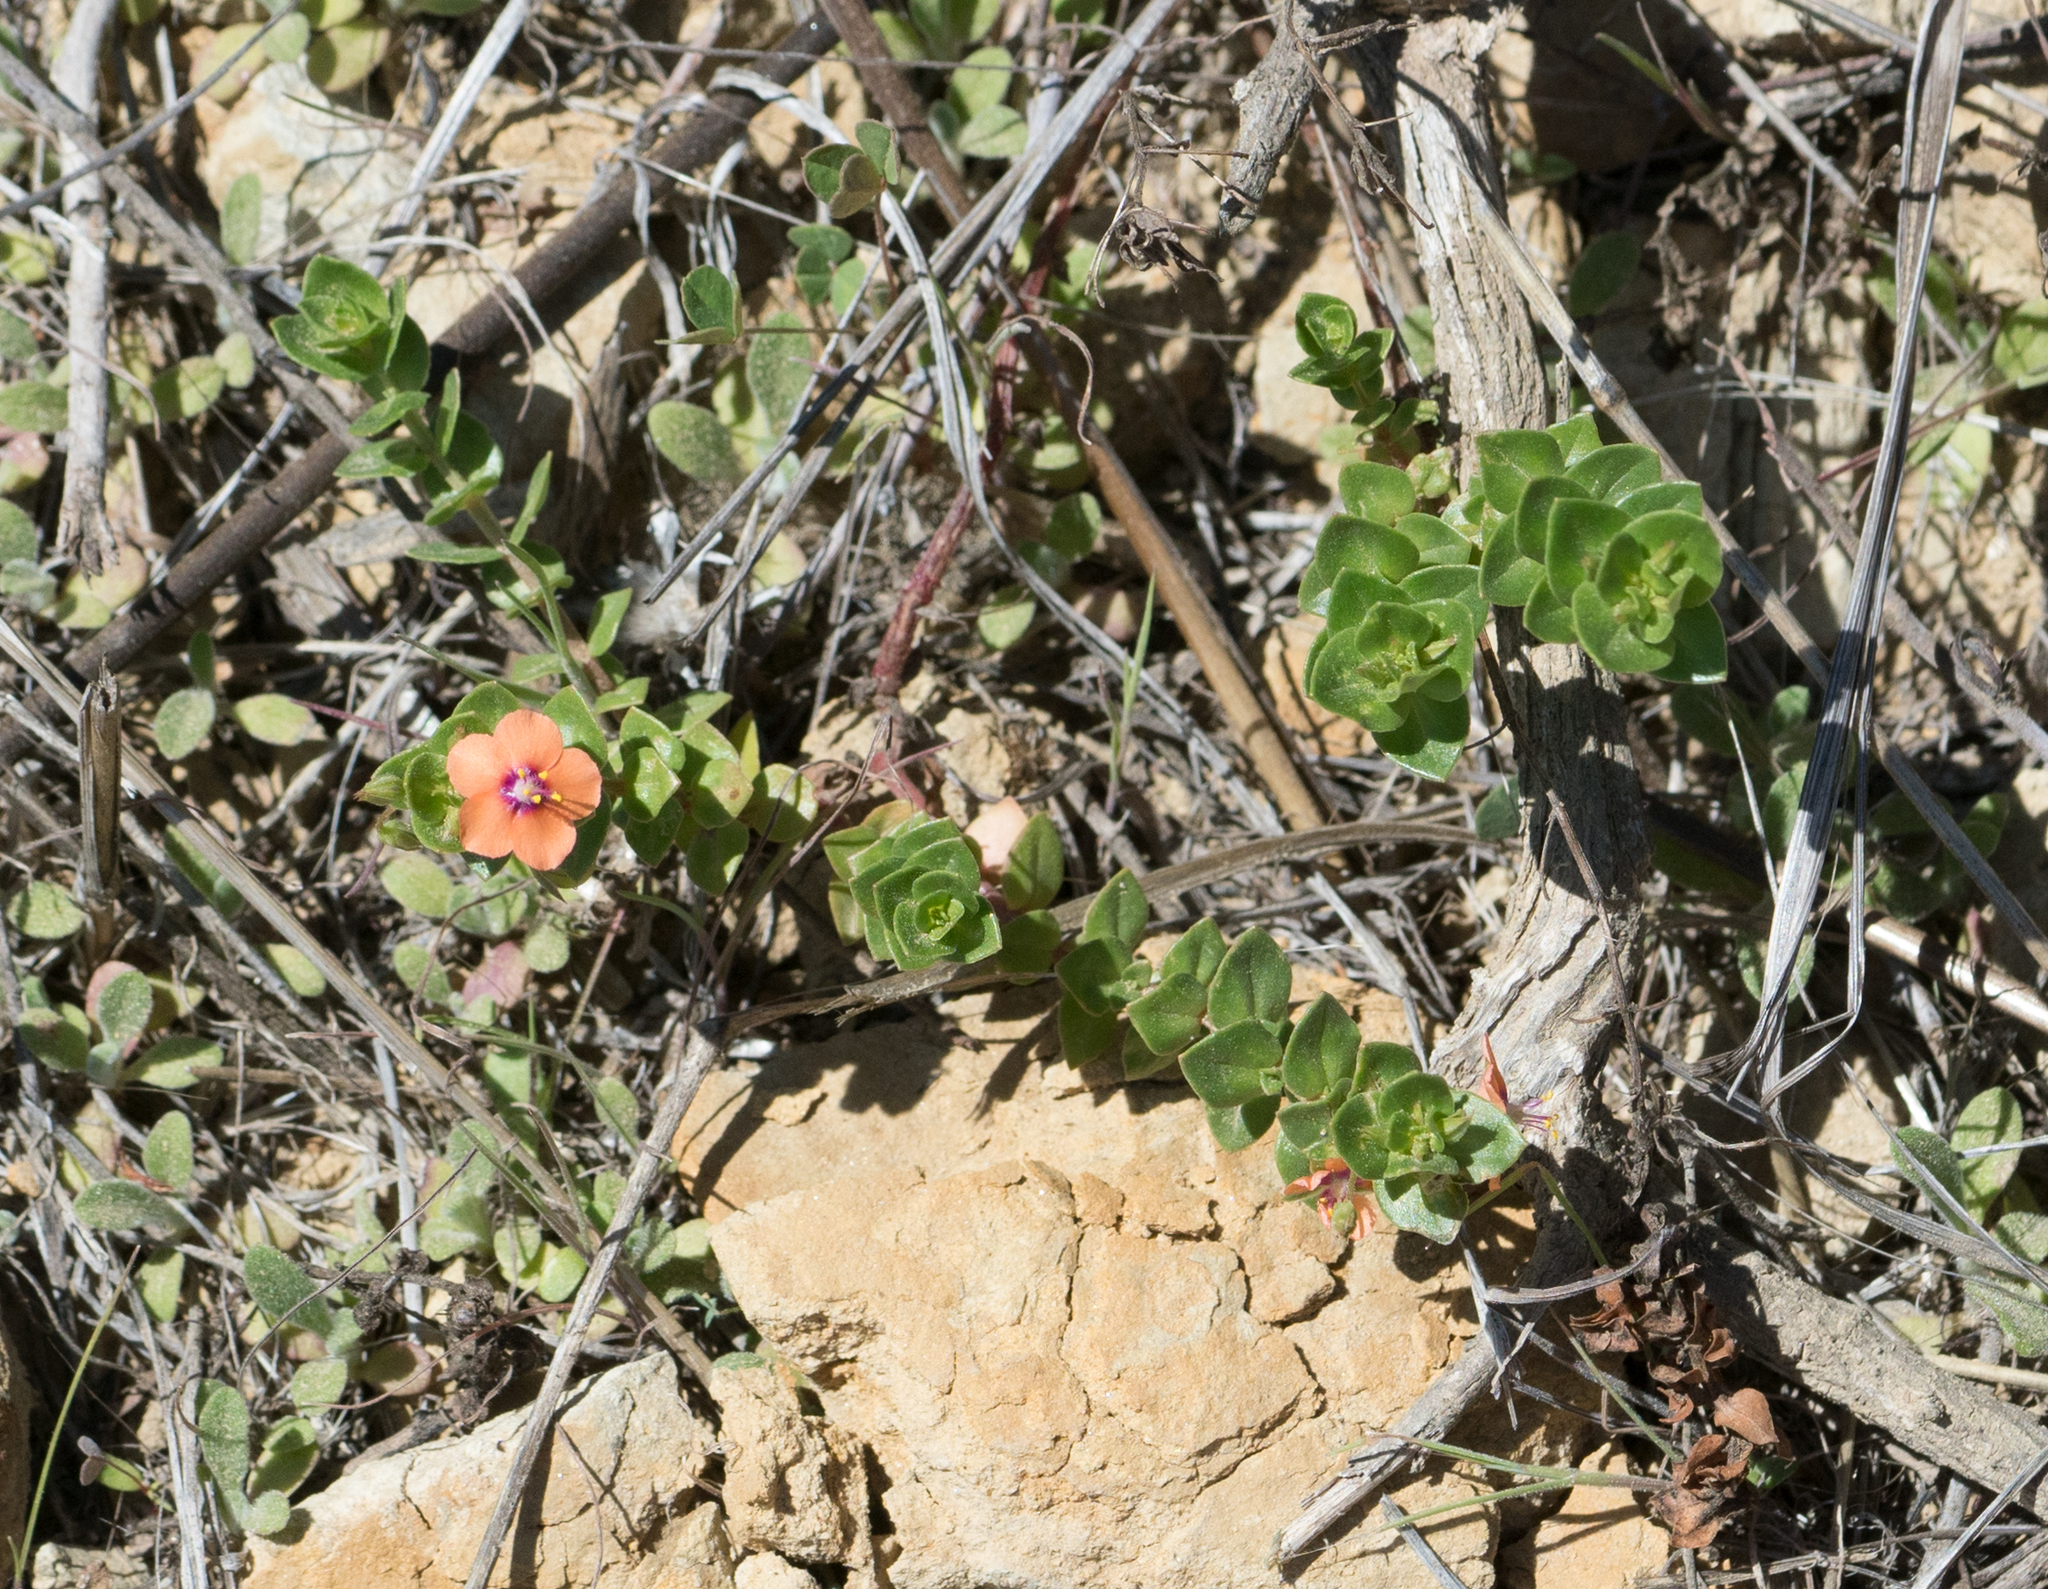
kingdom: Plantae
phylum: Tracheophyta
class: Magnoliopsida
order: Ericales
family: Primulaceae
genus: Lysimachia
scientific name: Lysimachia arvensis
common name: Scarlet pimpernel
